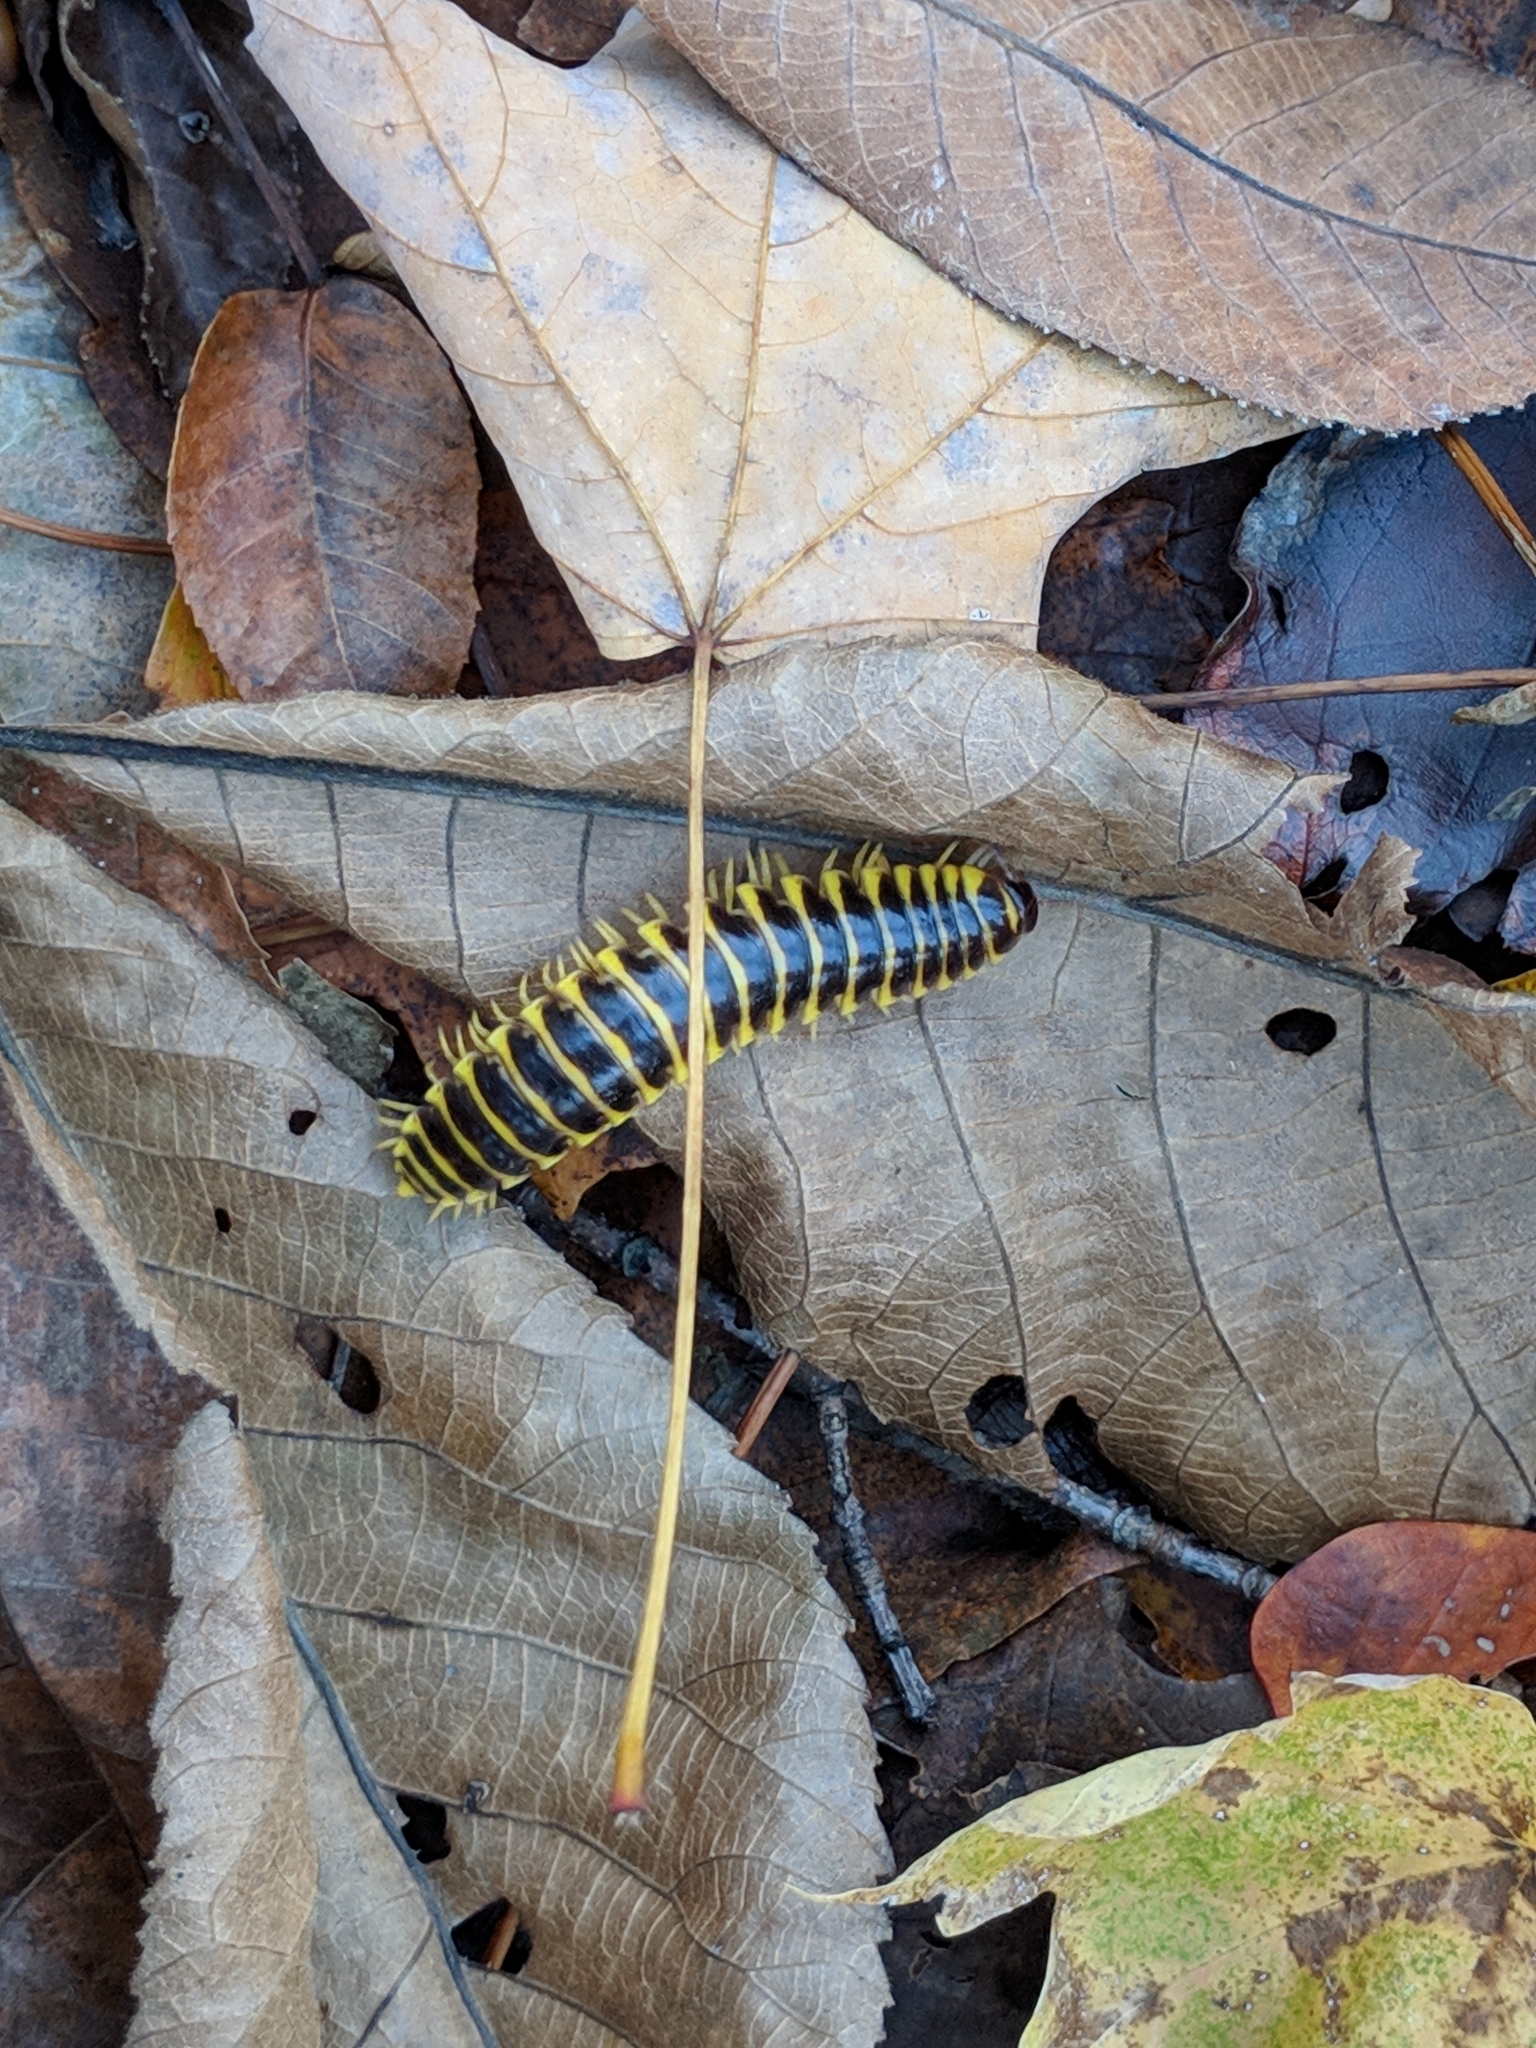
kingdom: Animalia
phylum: Arthropoda
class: Diplopoda
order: Polydesmida
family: Xystodesmidae
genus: Apheloria
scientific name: Apheloria virginiensis
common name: Black-and-gold flat millipede
